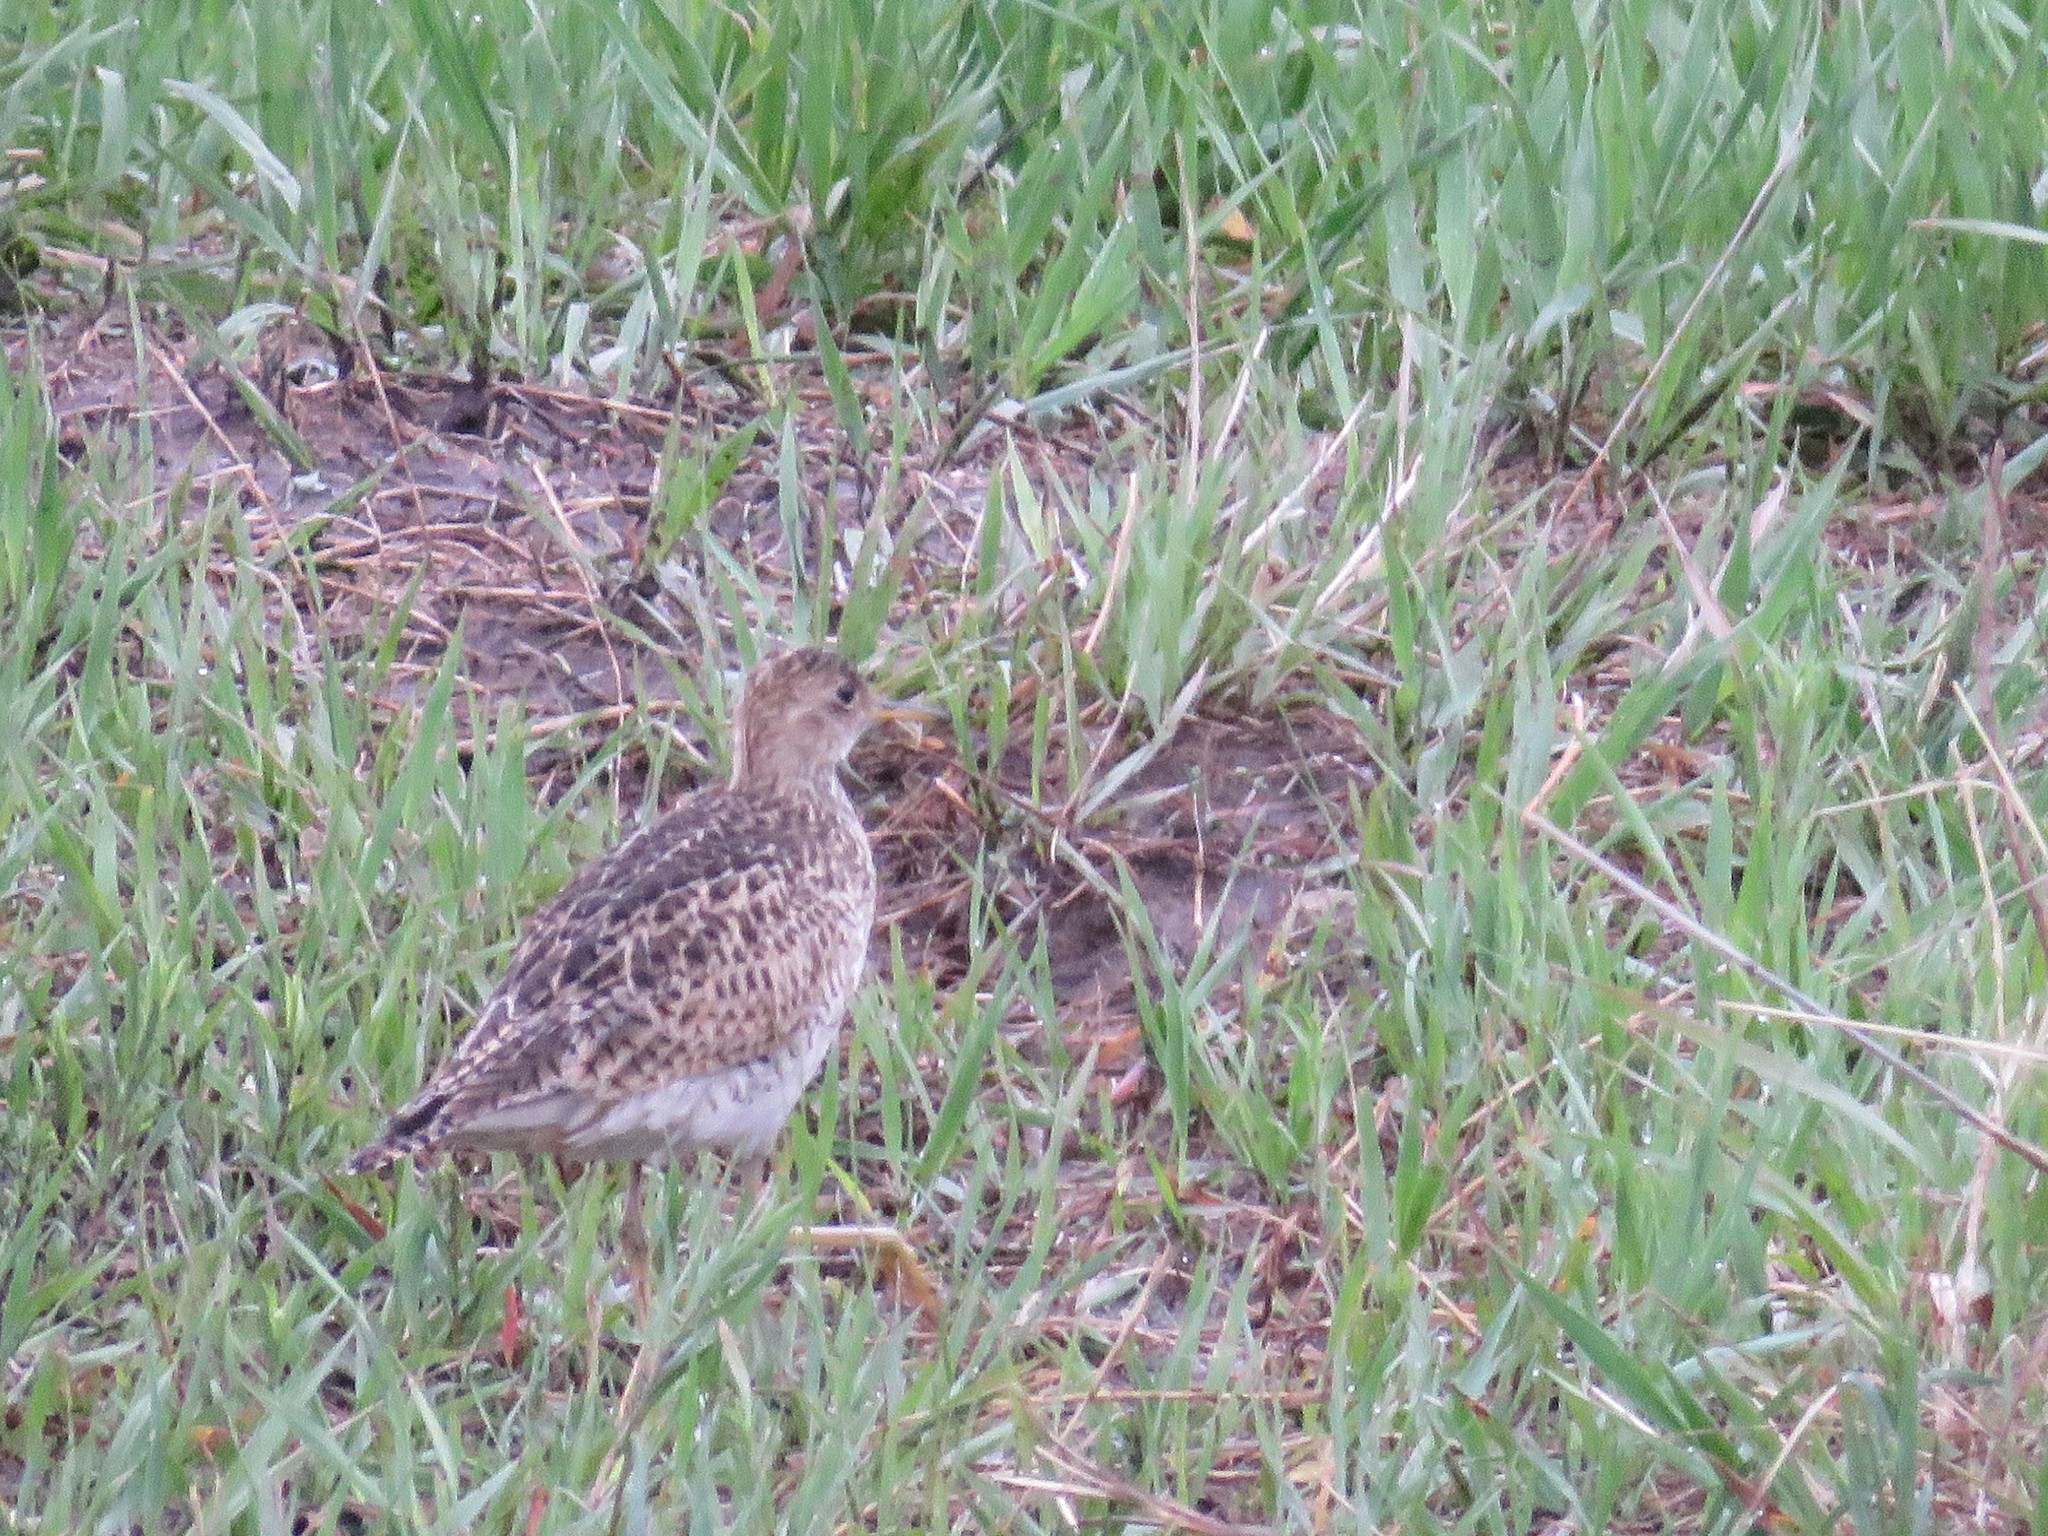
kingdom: Animalia
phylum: Chordata
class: Aves
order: Charadriiformes
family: Scolopacidae
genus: Bartramia
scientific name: Bartramia longicauda
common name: Upland sandpiper
